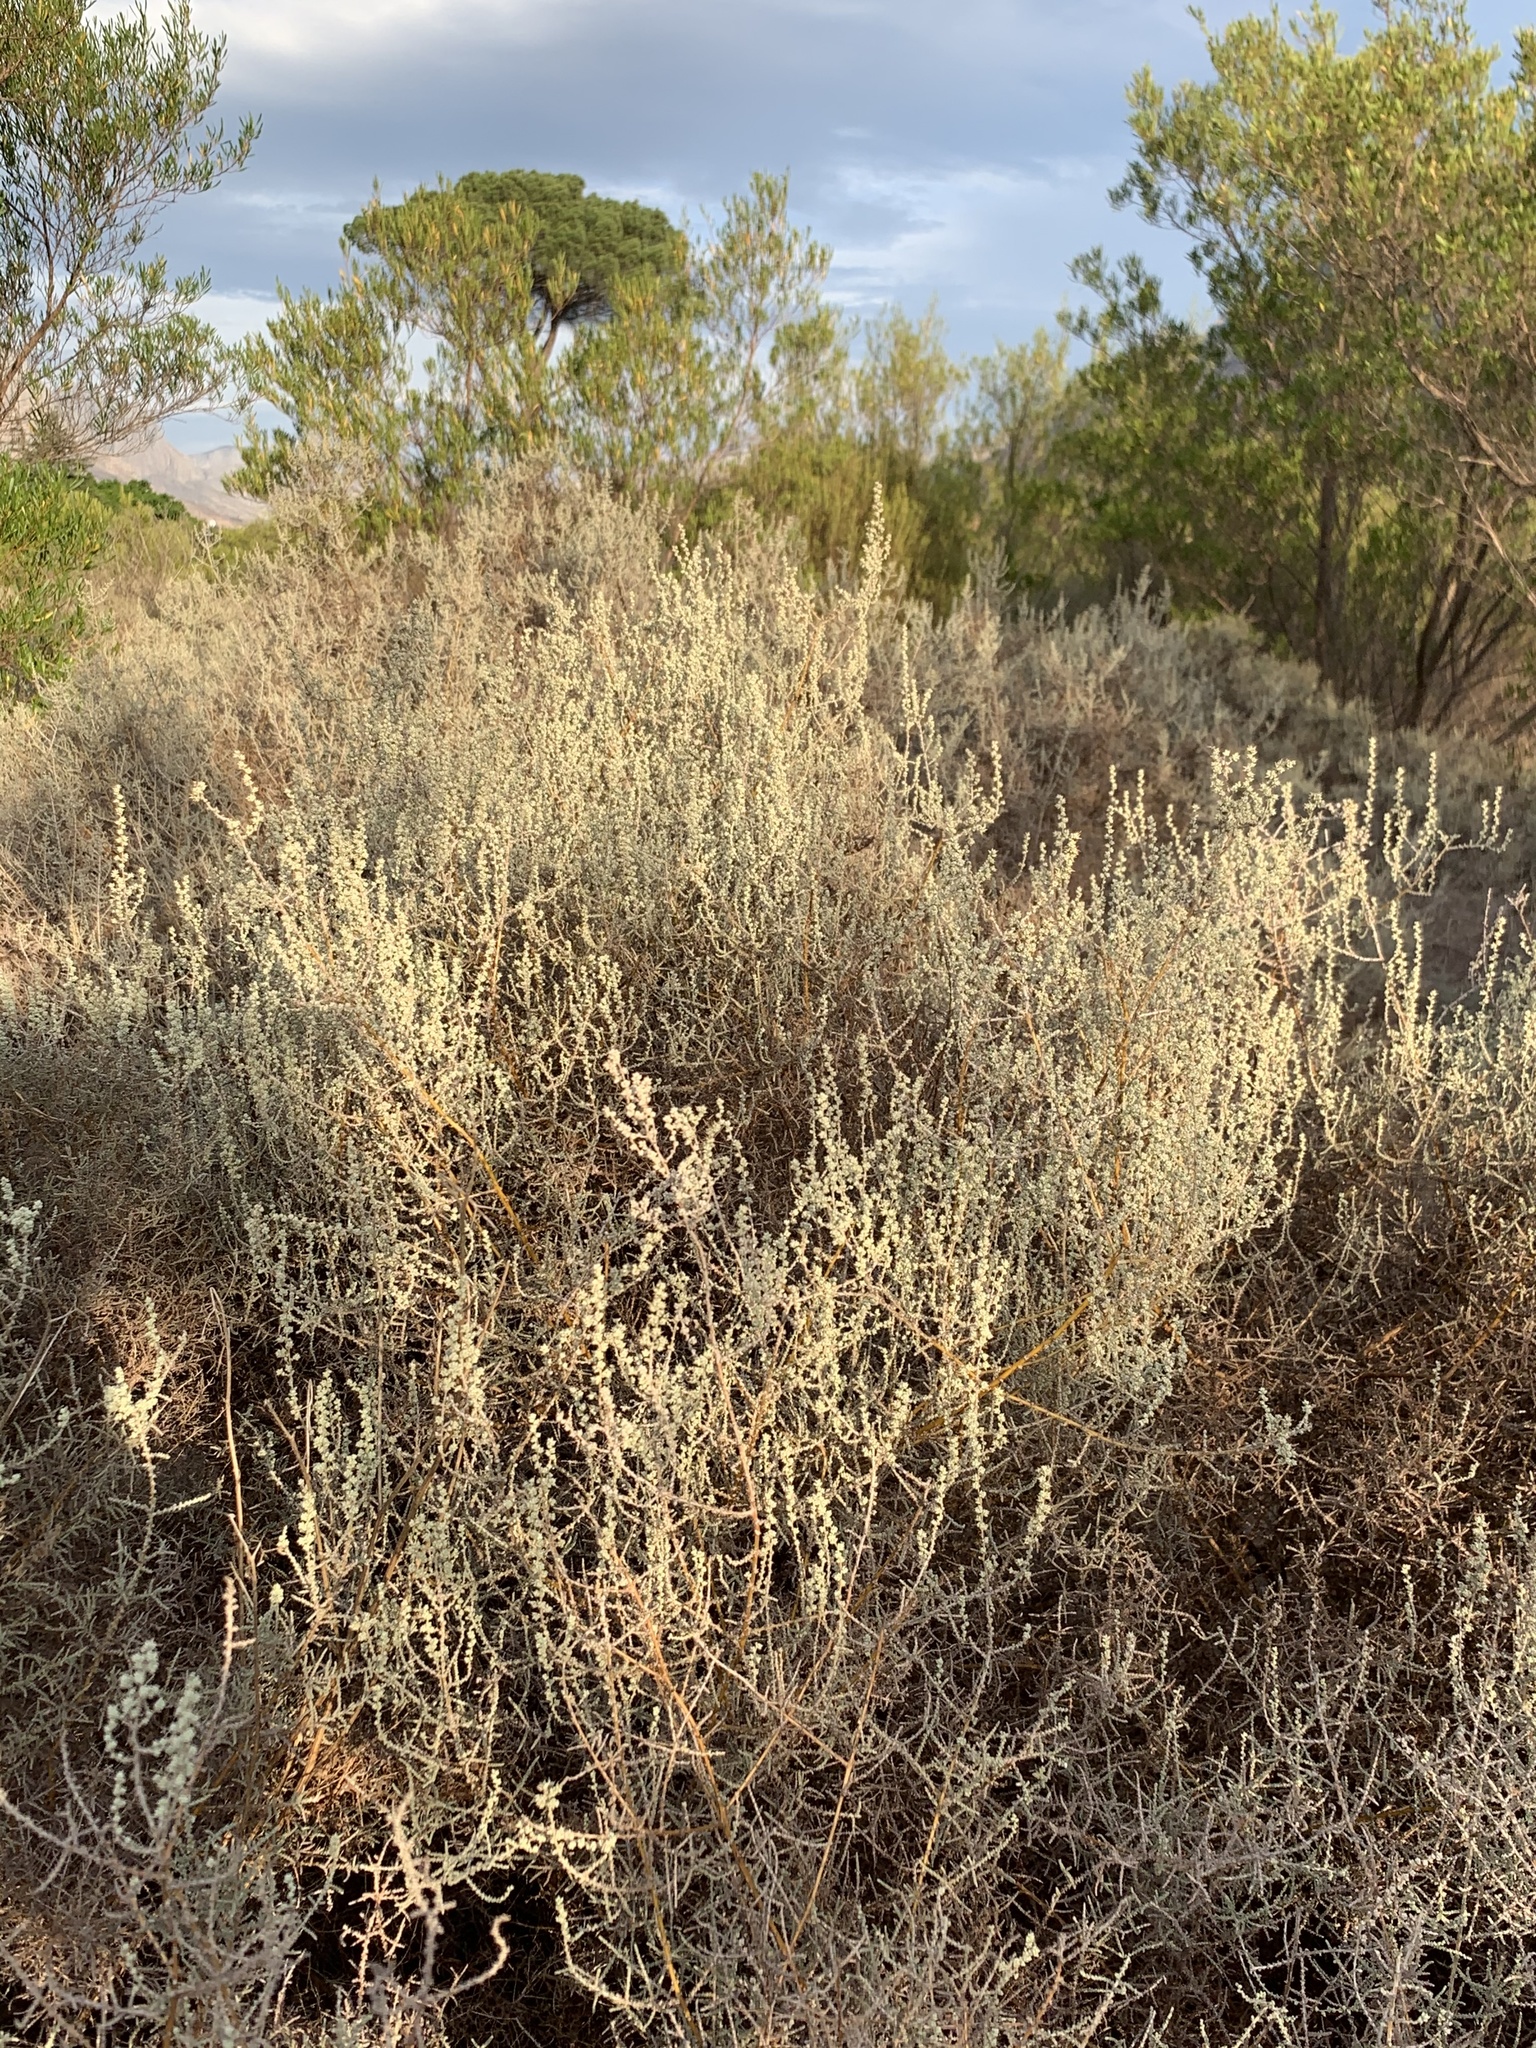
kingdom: Plantae
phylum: Tracheophyta
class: Magnoliopsida
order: Asterales
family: Asteraceae
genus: Seriphium
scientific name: Seriphium plumosum
